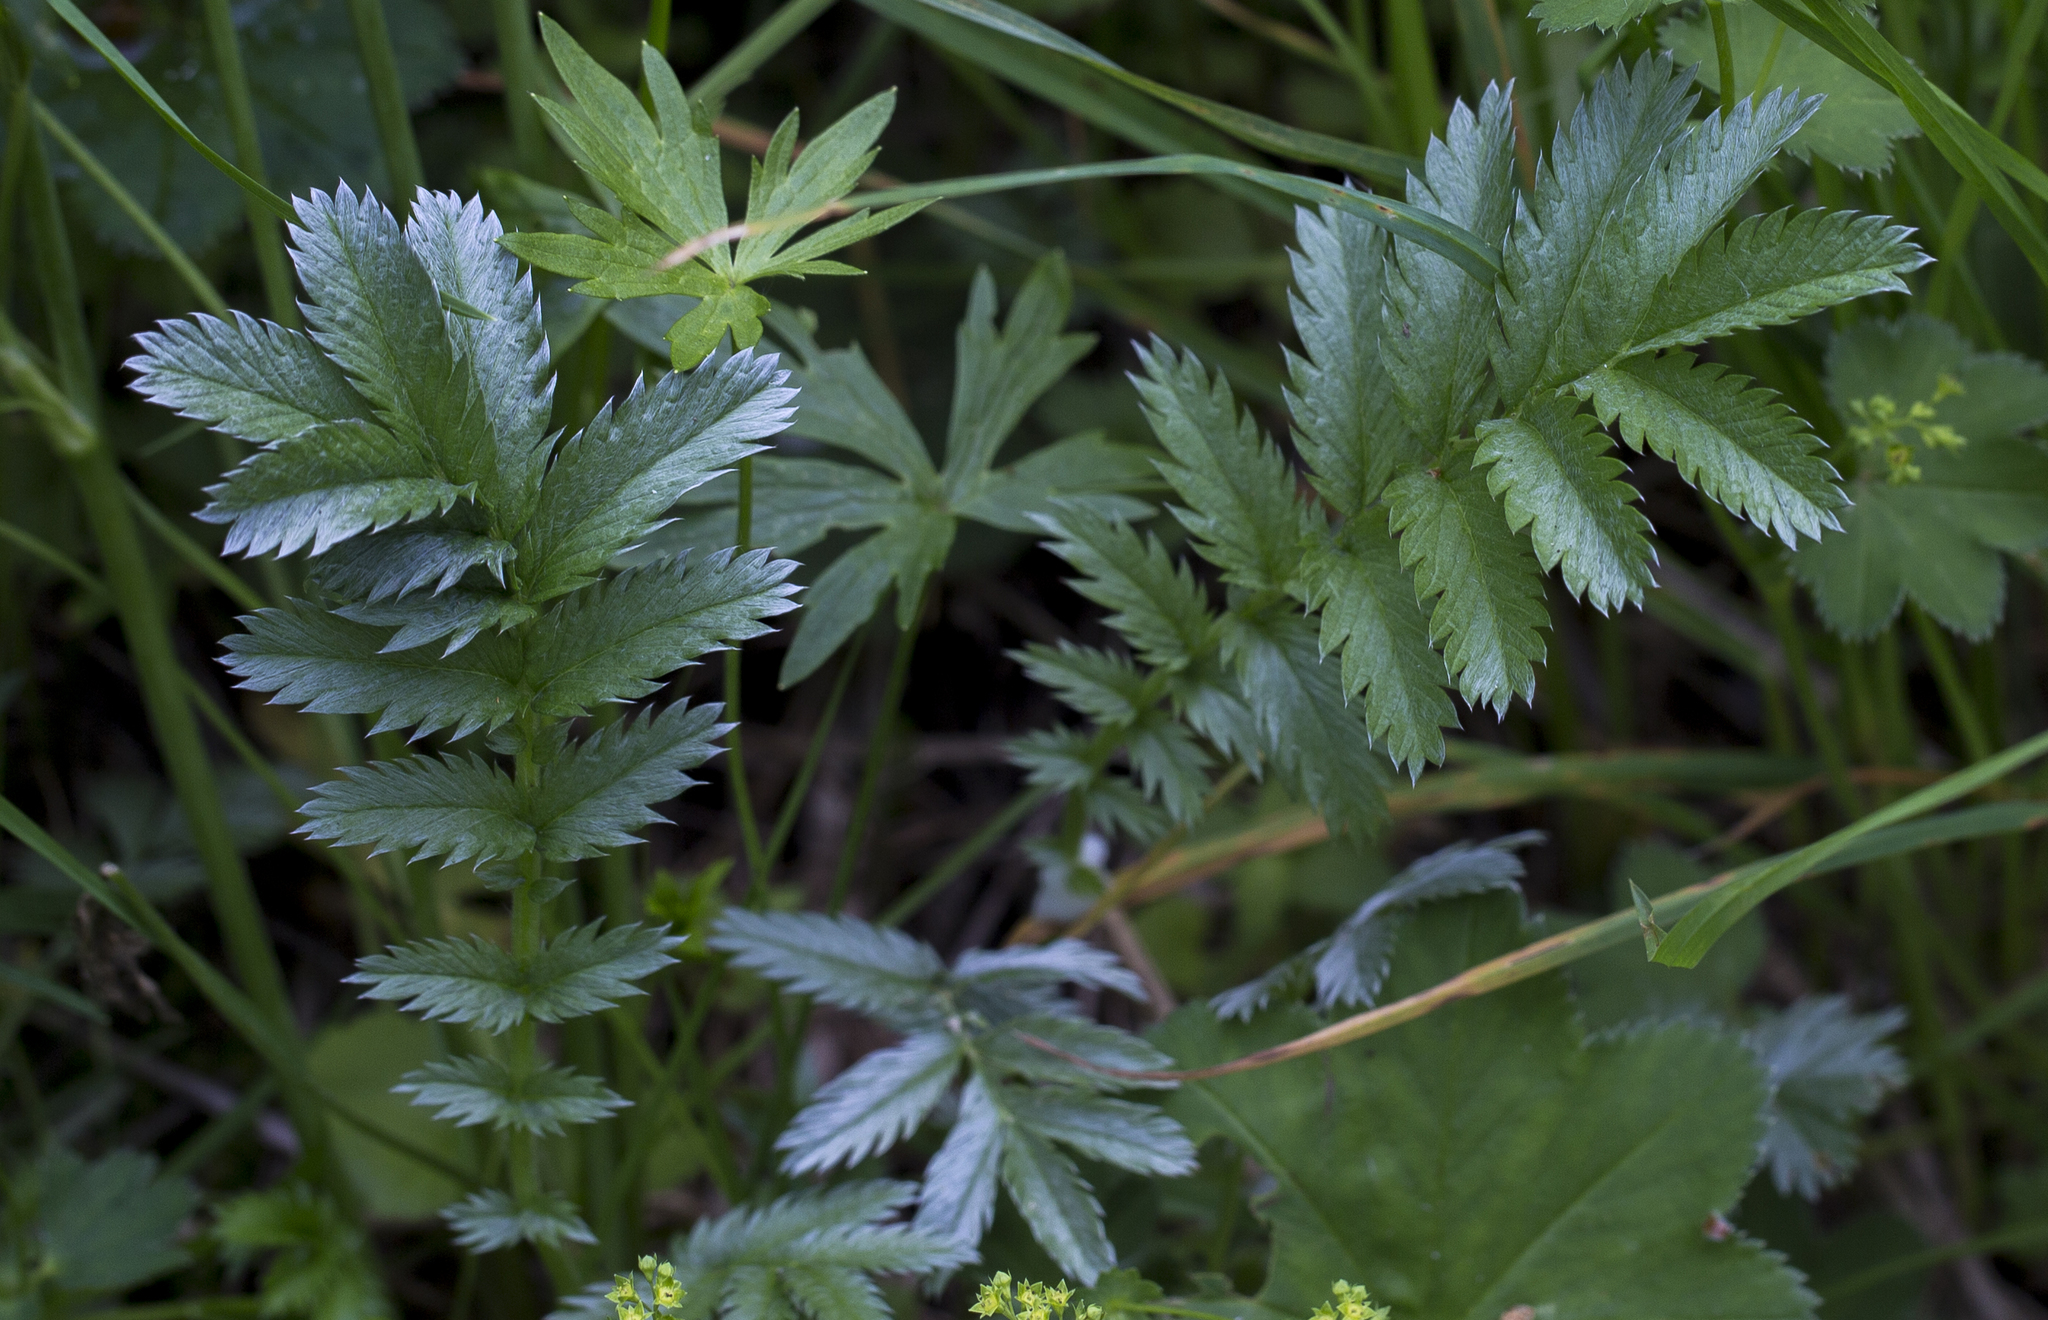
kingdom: Plantae
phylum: Tracheophyta
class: Magnoliopsida
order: Rosales
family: Rosaceae
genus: Argentina
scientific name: Argentina anserina
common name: Common silverweed
